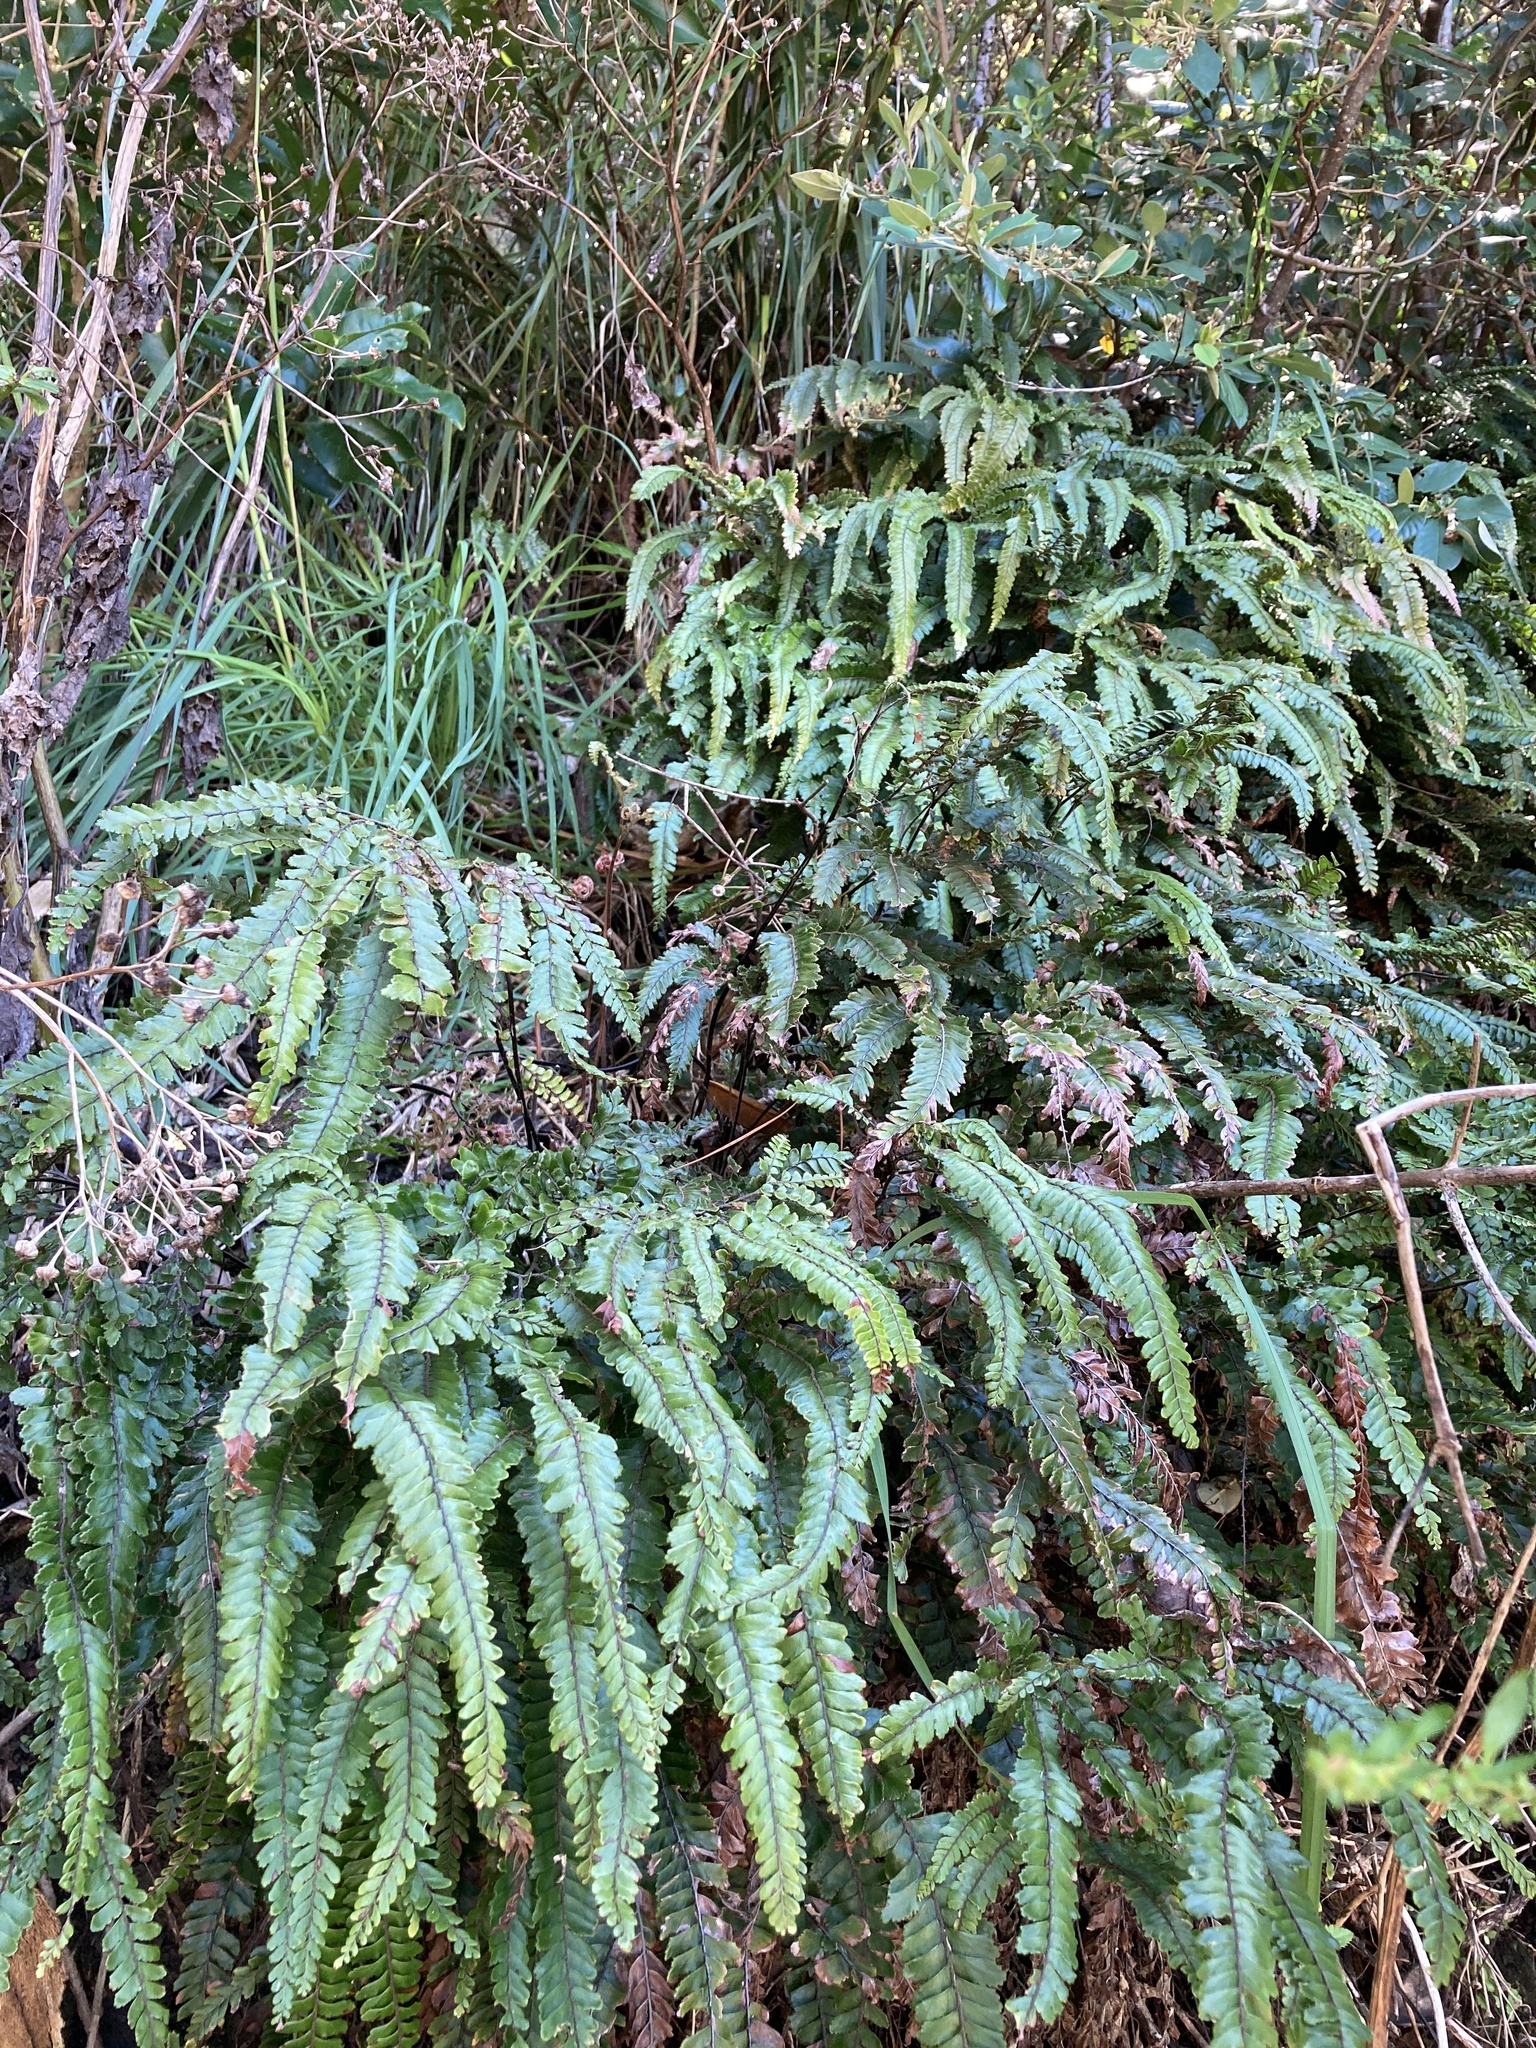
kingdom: Plantae
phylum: Tracheophyta
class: Polypodiopsida
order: Polypodiales
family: Pteridaceae
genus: Adiantum
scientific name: Adiantum hispidulum
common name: Rough maidenhair
